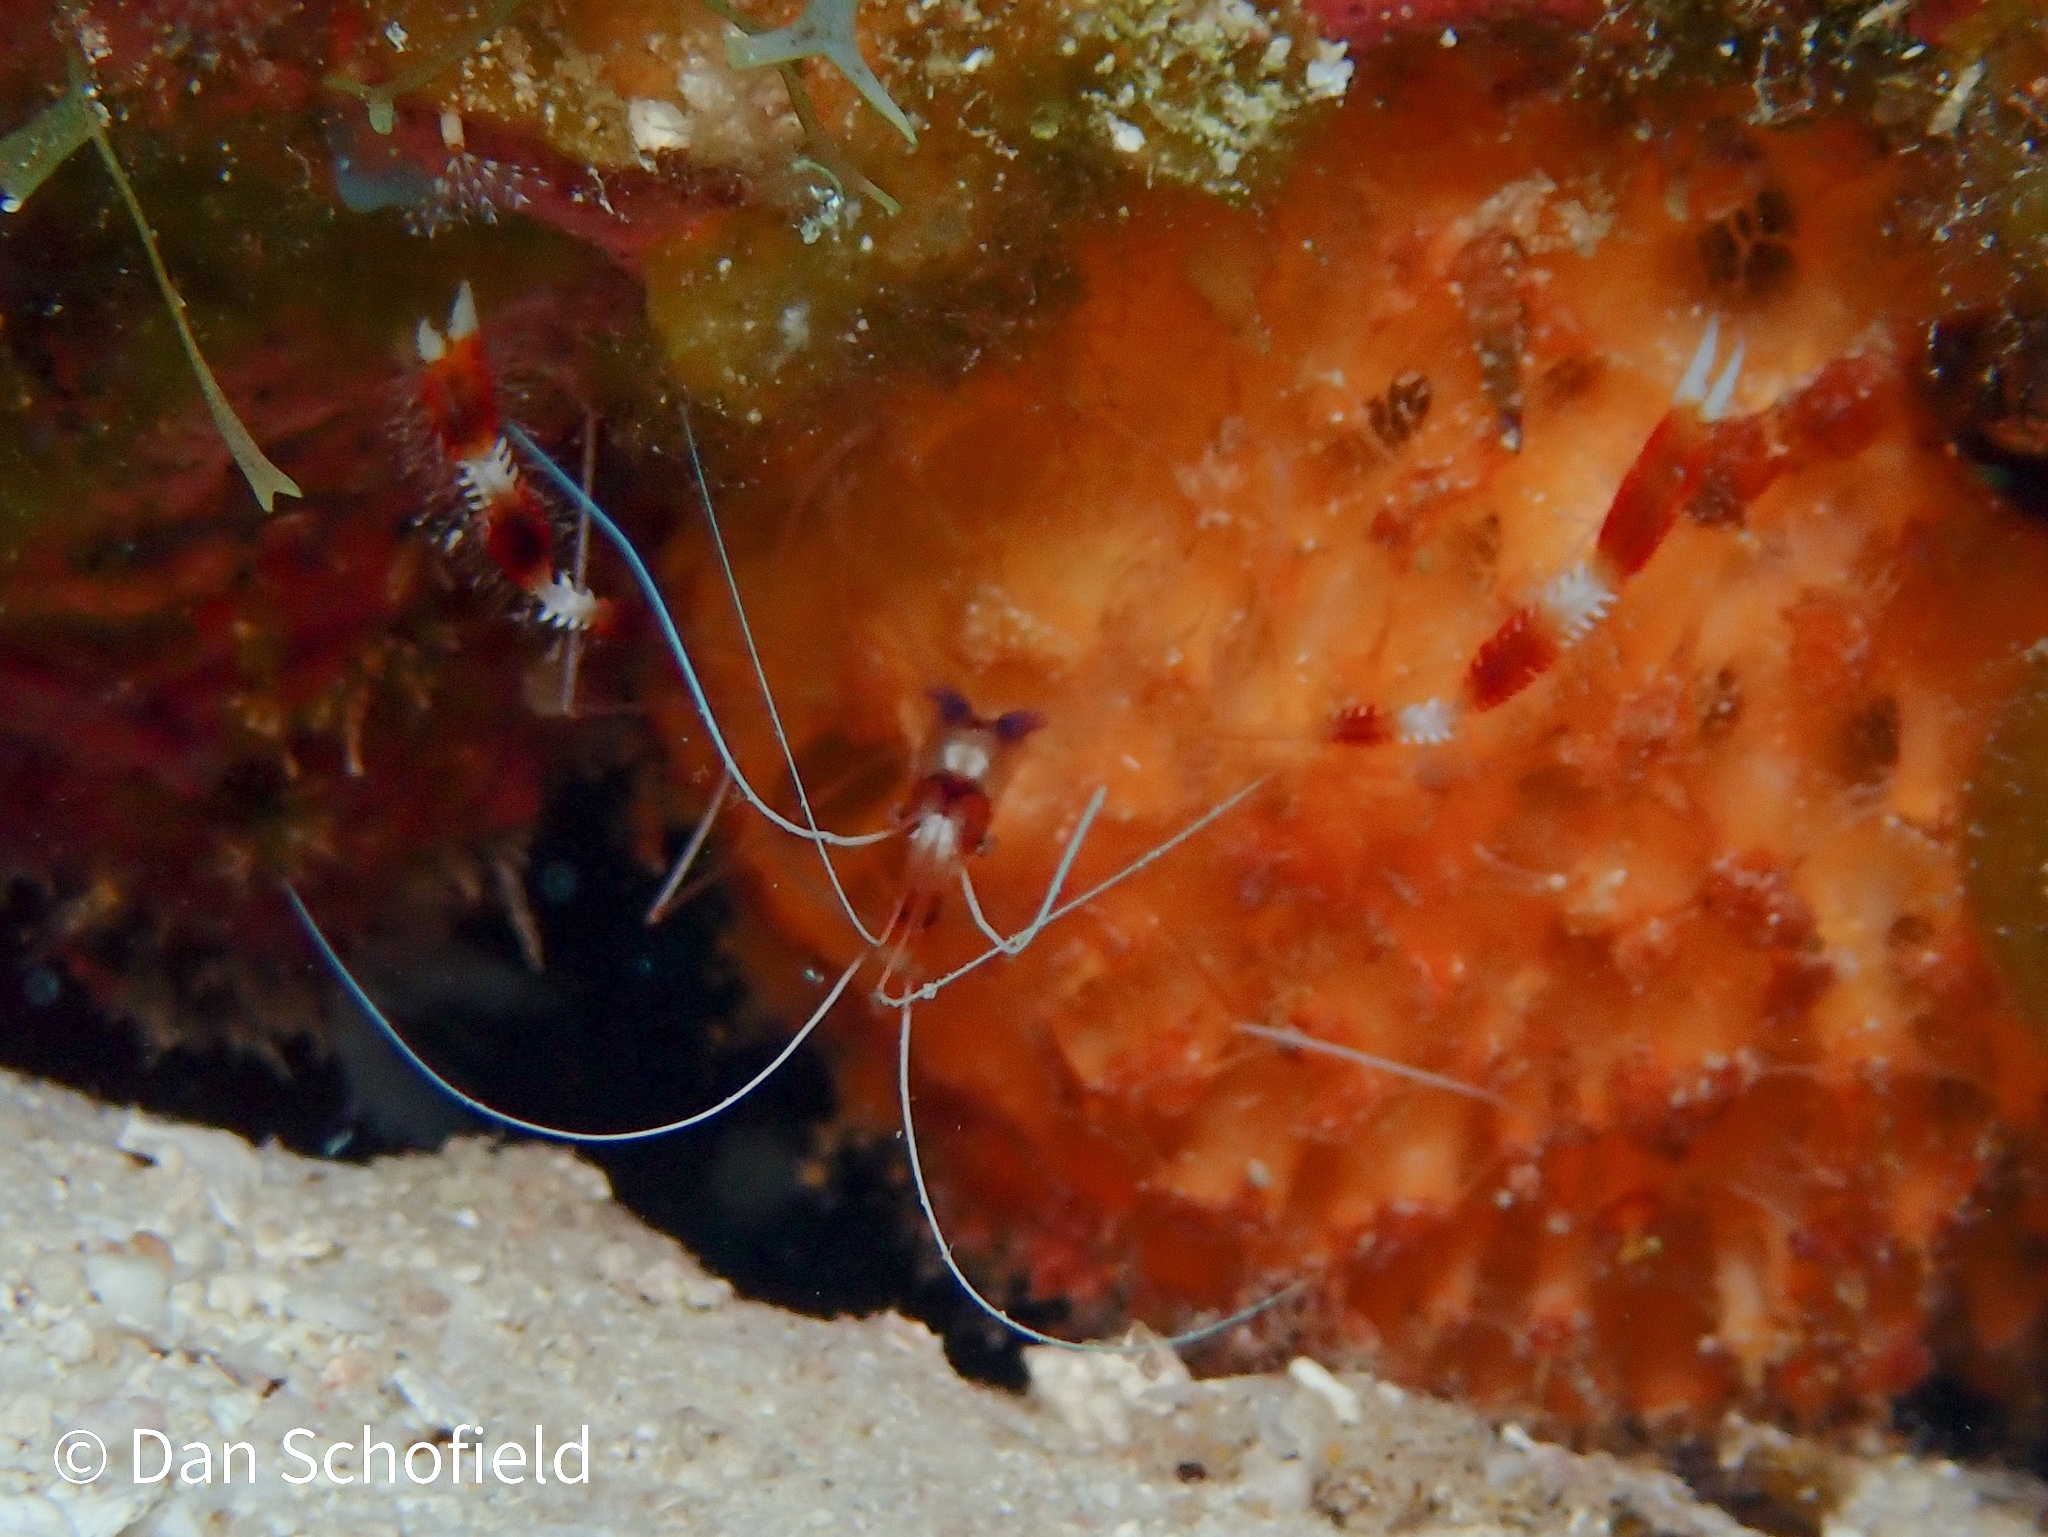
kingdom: Animalia
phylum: Arthropoda
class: Malacostraca
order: Decapoda
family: Stenopodidae
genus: Stenopus
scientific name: Stenopus hispidus
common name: Banded coral shrimp
